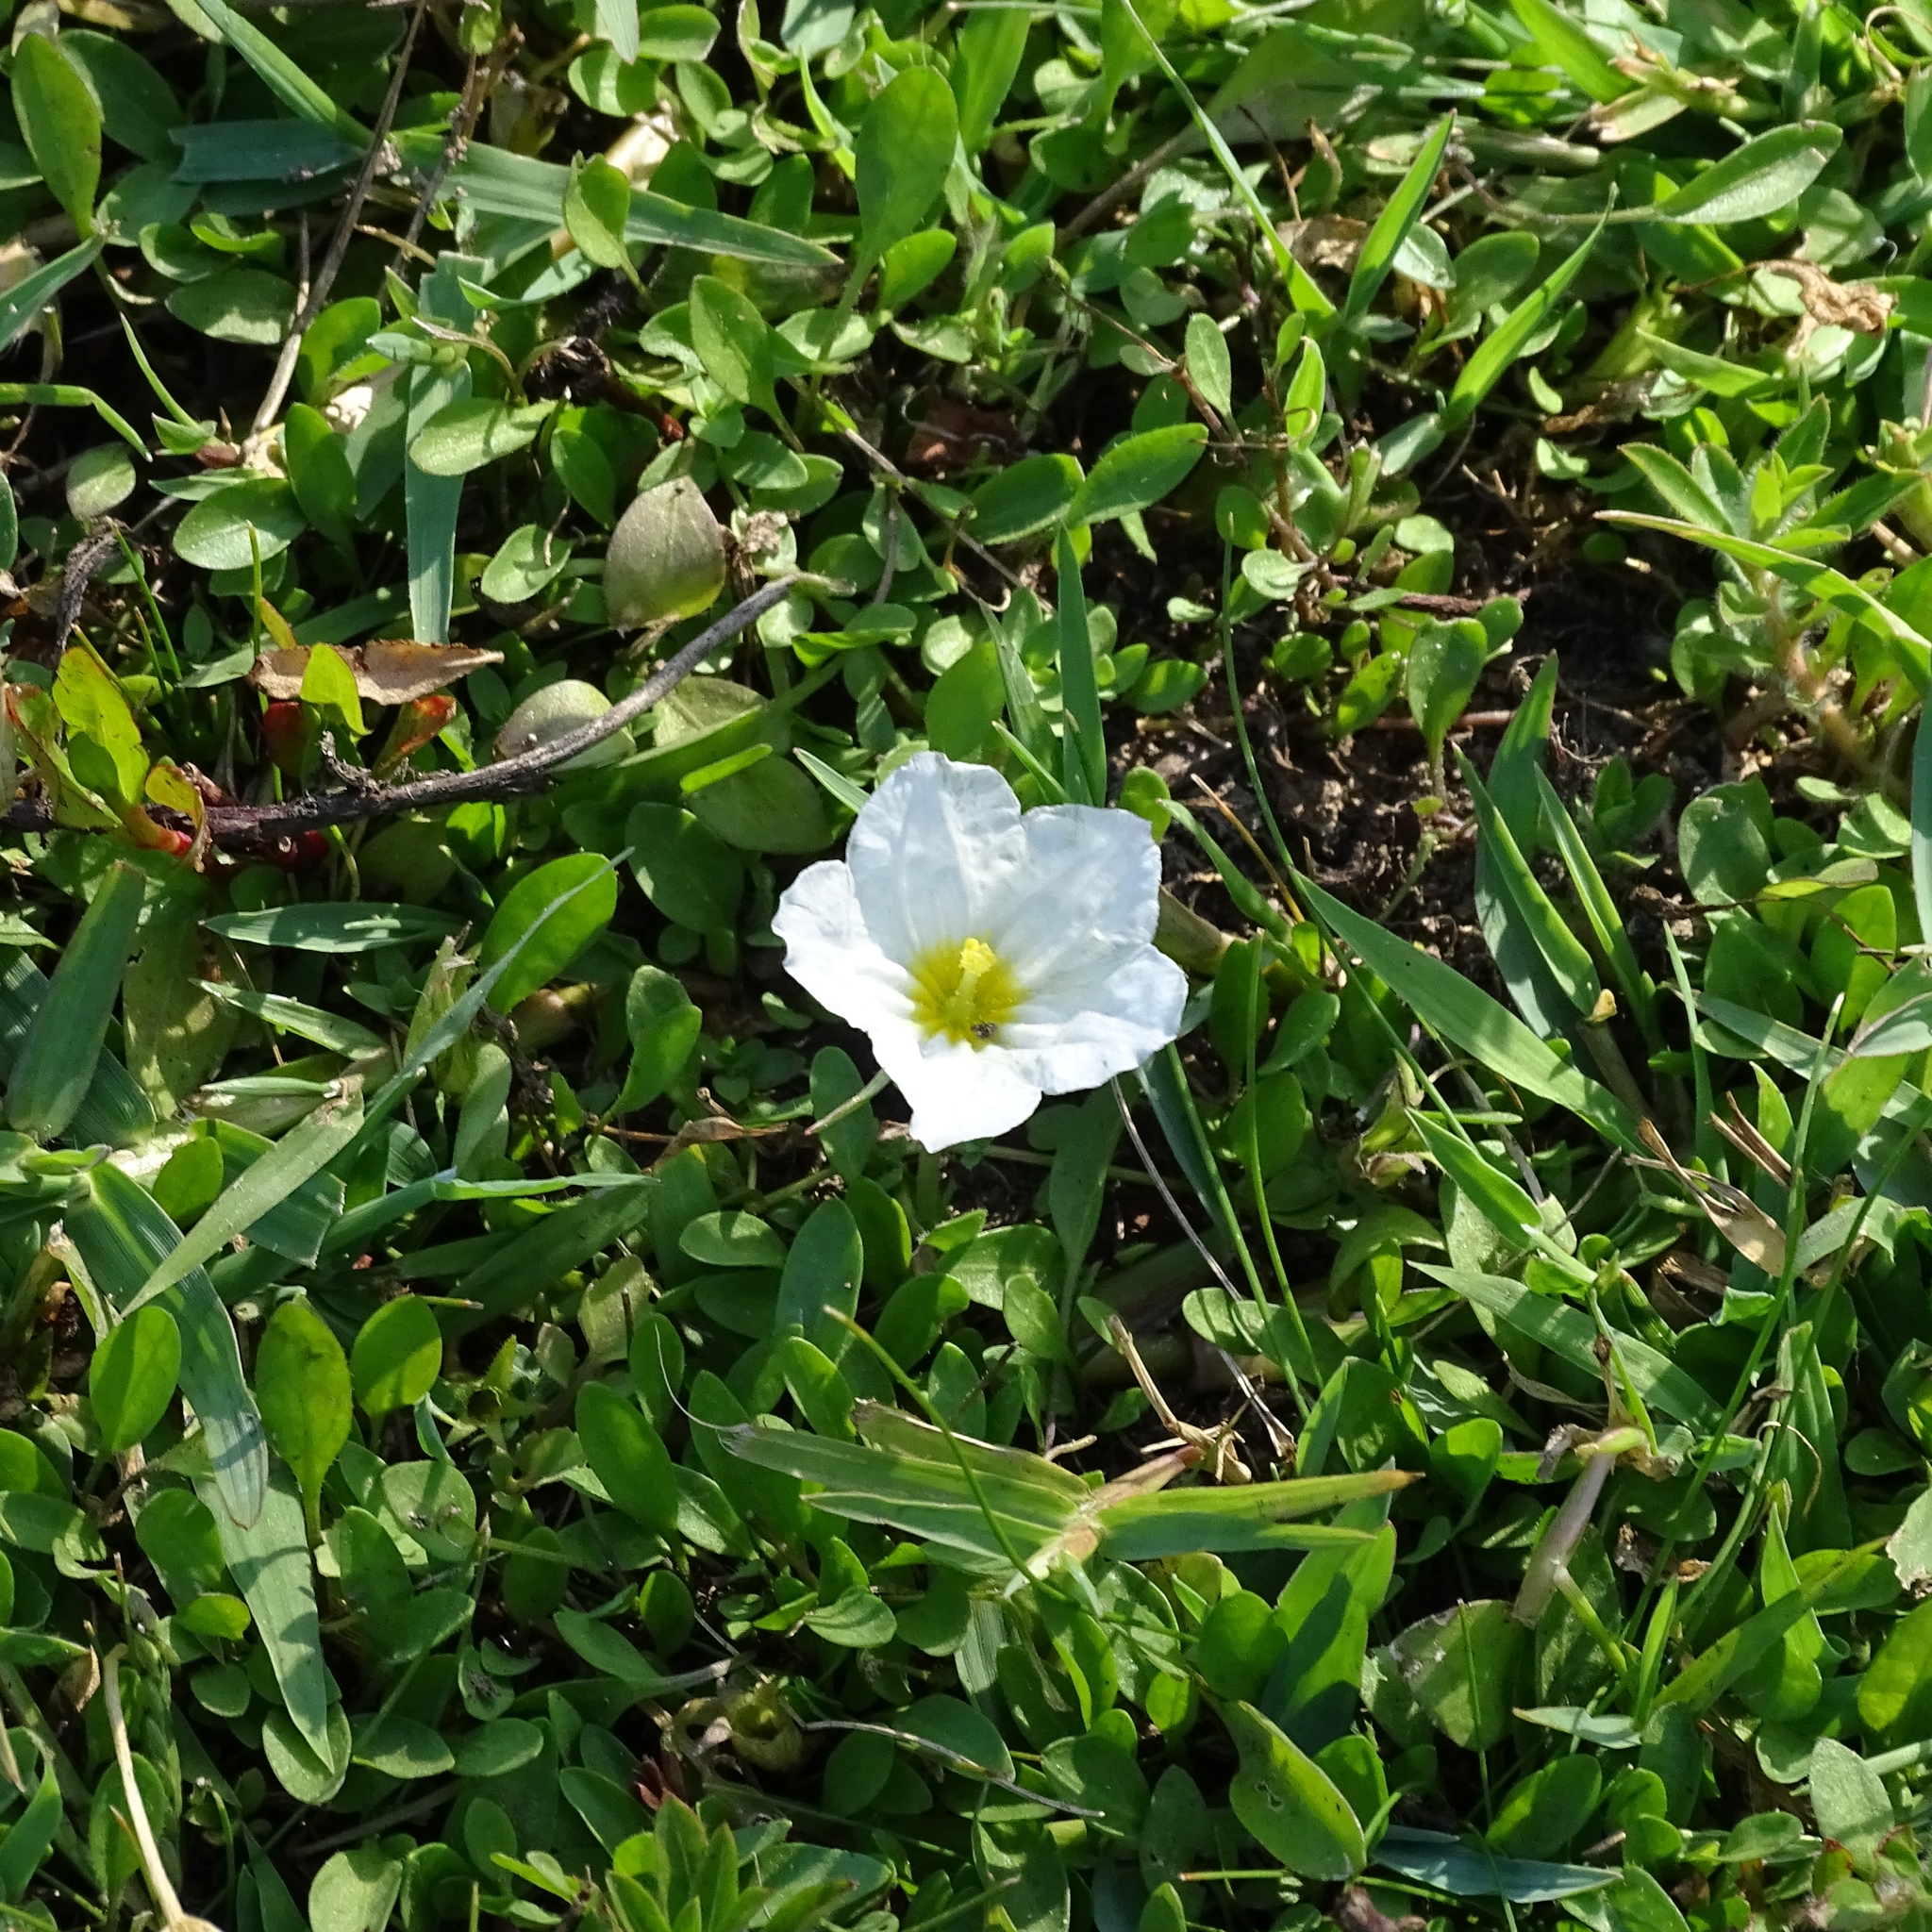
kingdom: Plantae
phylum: Tracheophyta
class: Magnoliopsida
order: Solanales
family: Solanaceae
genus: Nierembergia
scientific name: Nierembergia repens
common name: Whitecup
